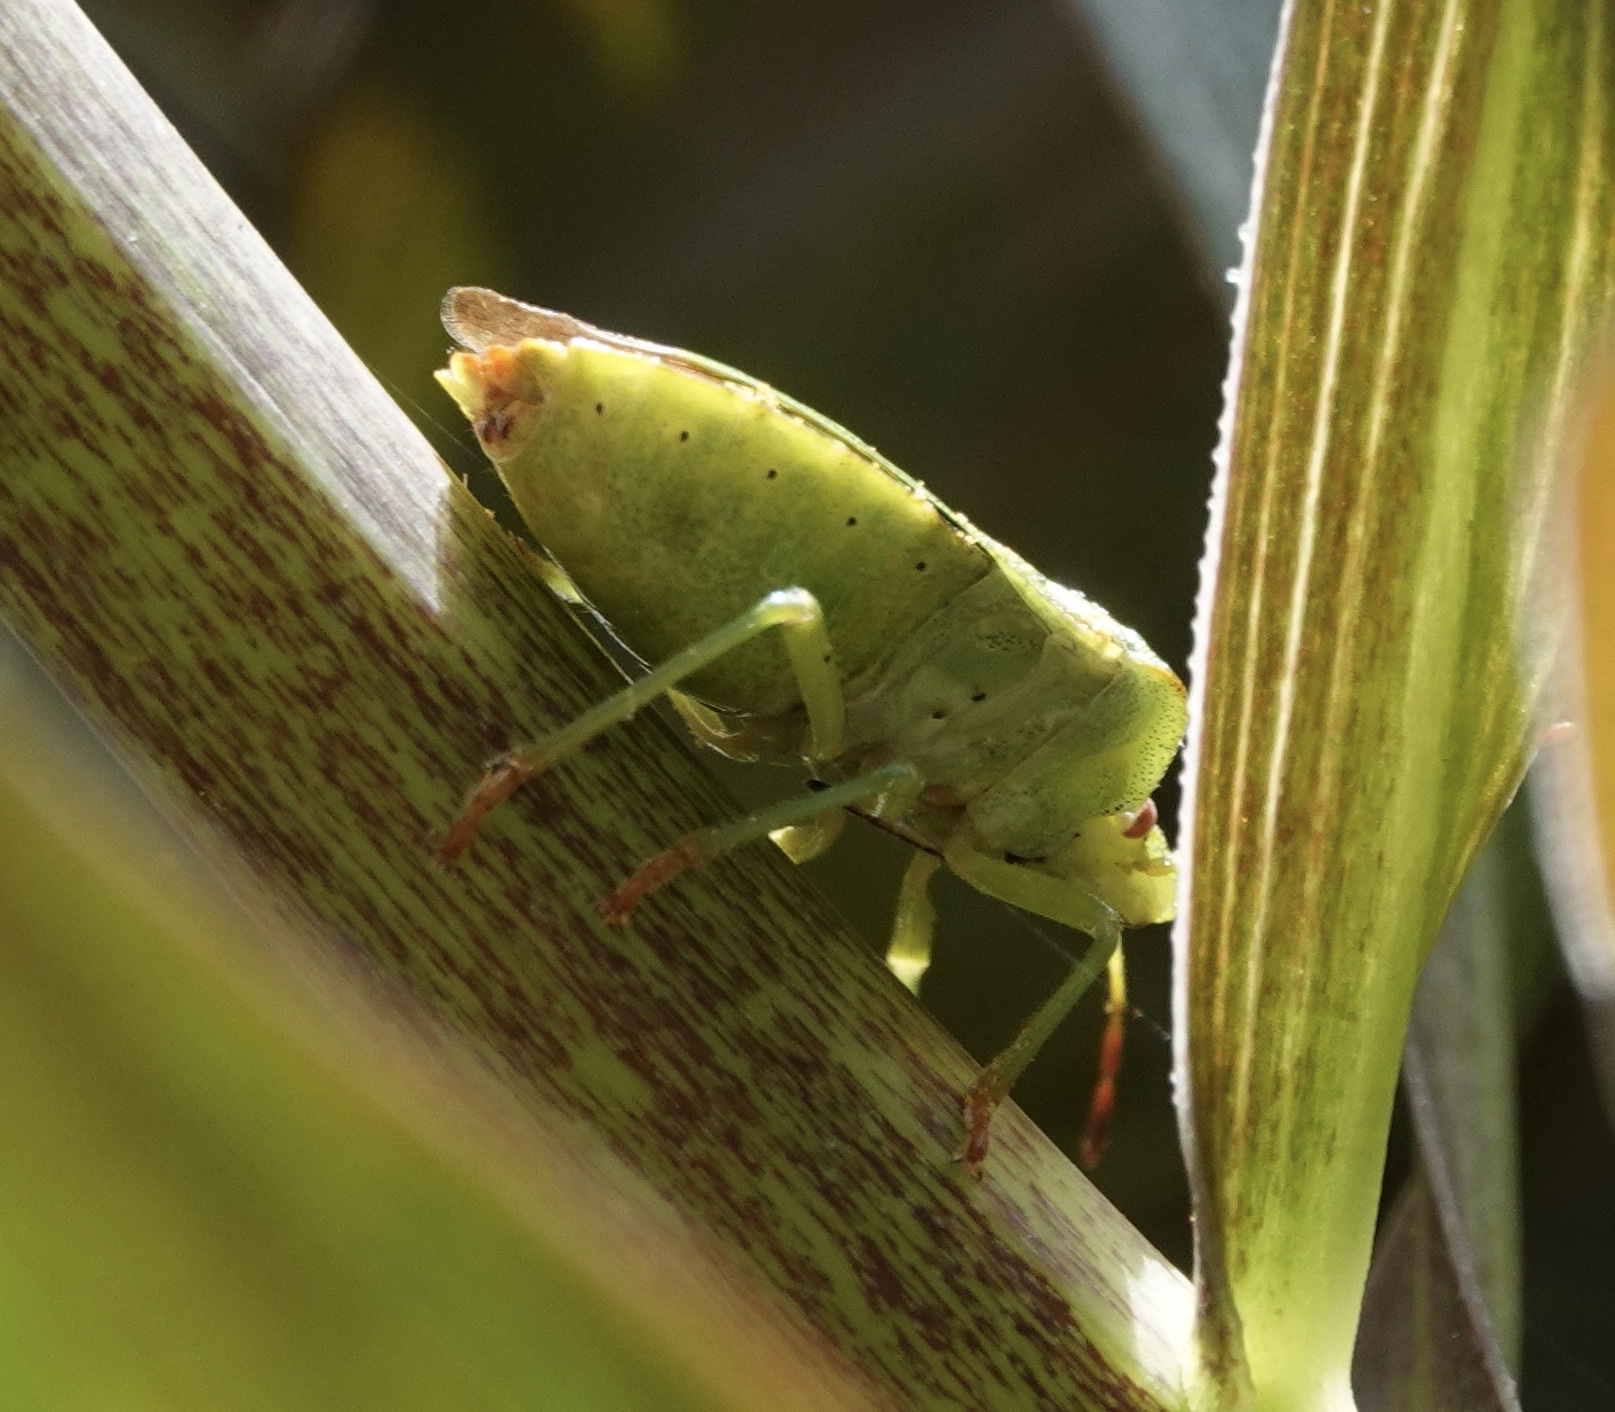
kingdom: Animalia
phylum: Arthropoda
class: Insecta
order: Hemiptera
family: Pentatomidae
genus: Palomena
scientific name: Palomena prasina
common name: Green shieldbug
